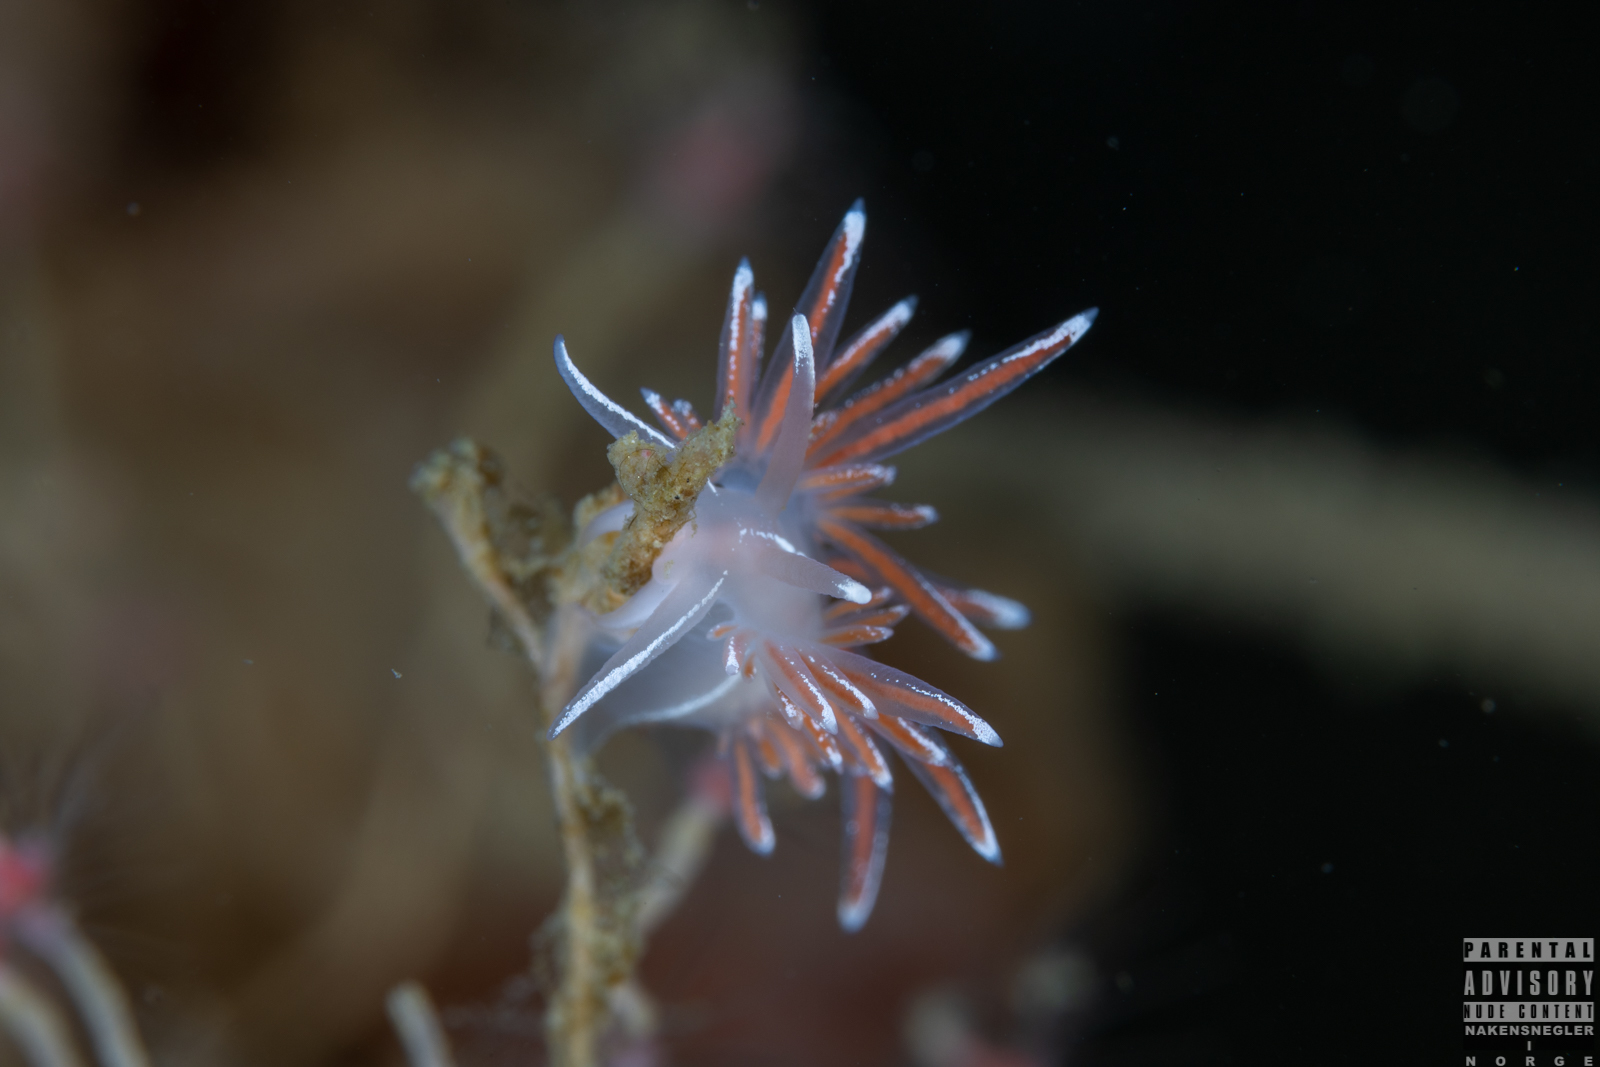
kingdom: Animalia
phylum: Mollusca
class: Gastropoda
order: Nudibranchia
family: Coryphellidae
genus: Coryphella
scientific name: Coryphella lineata
